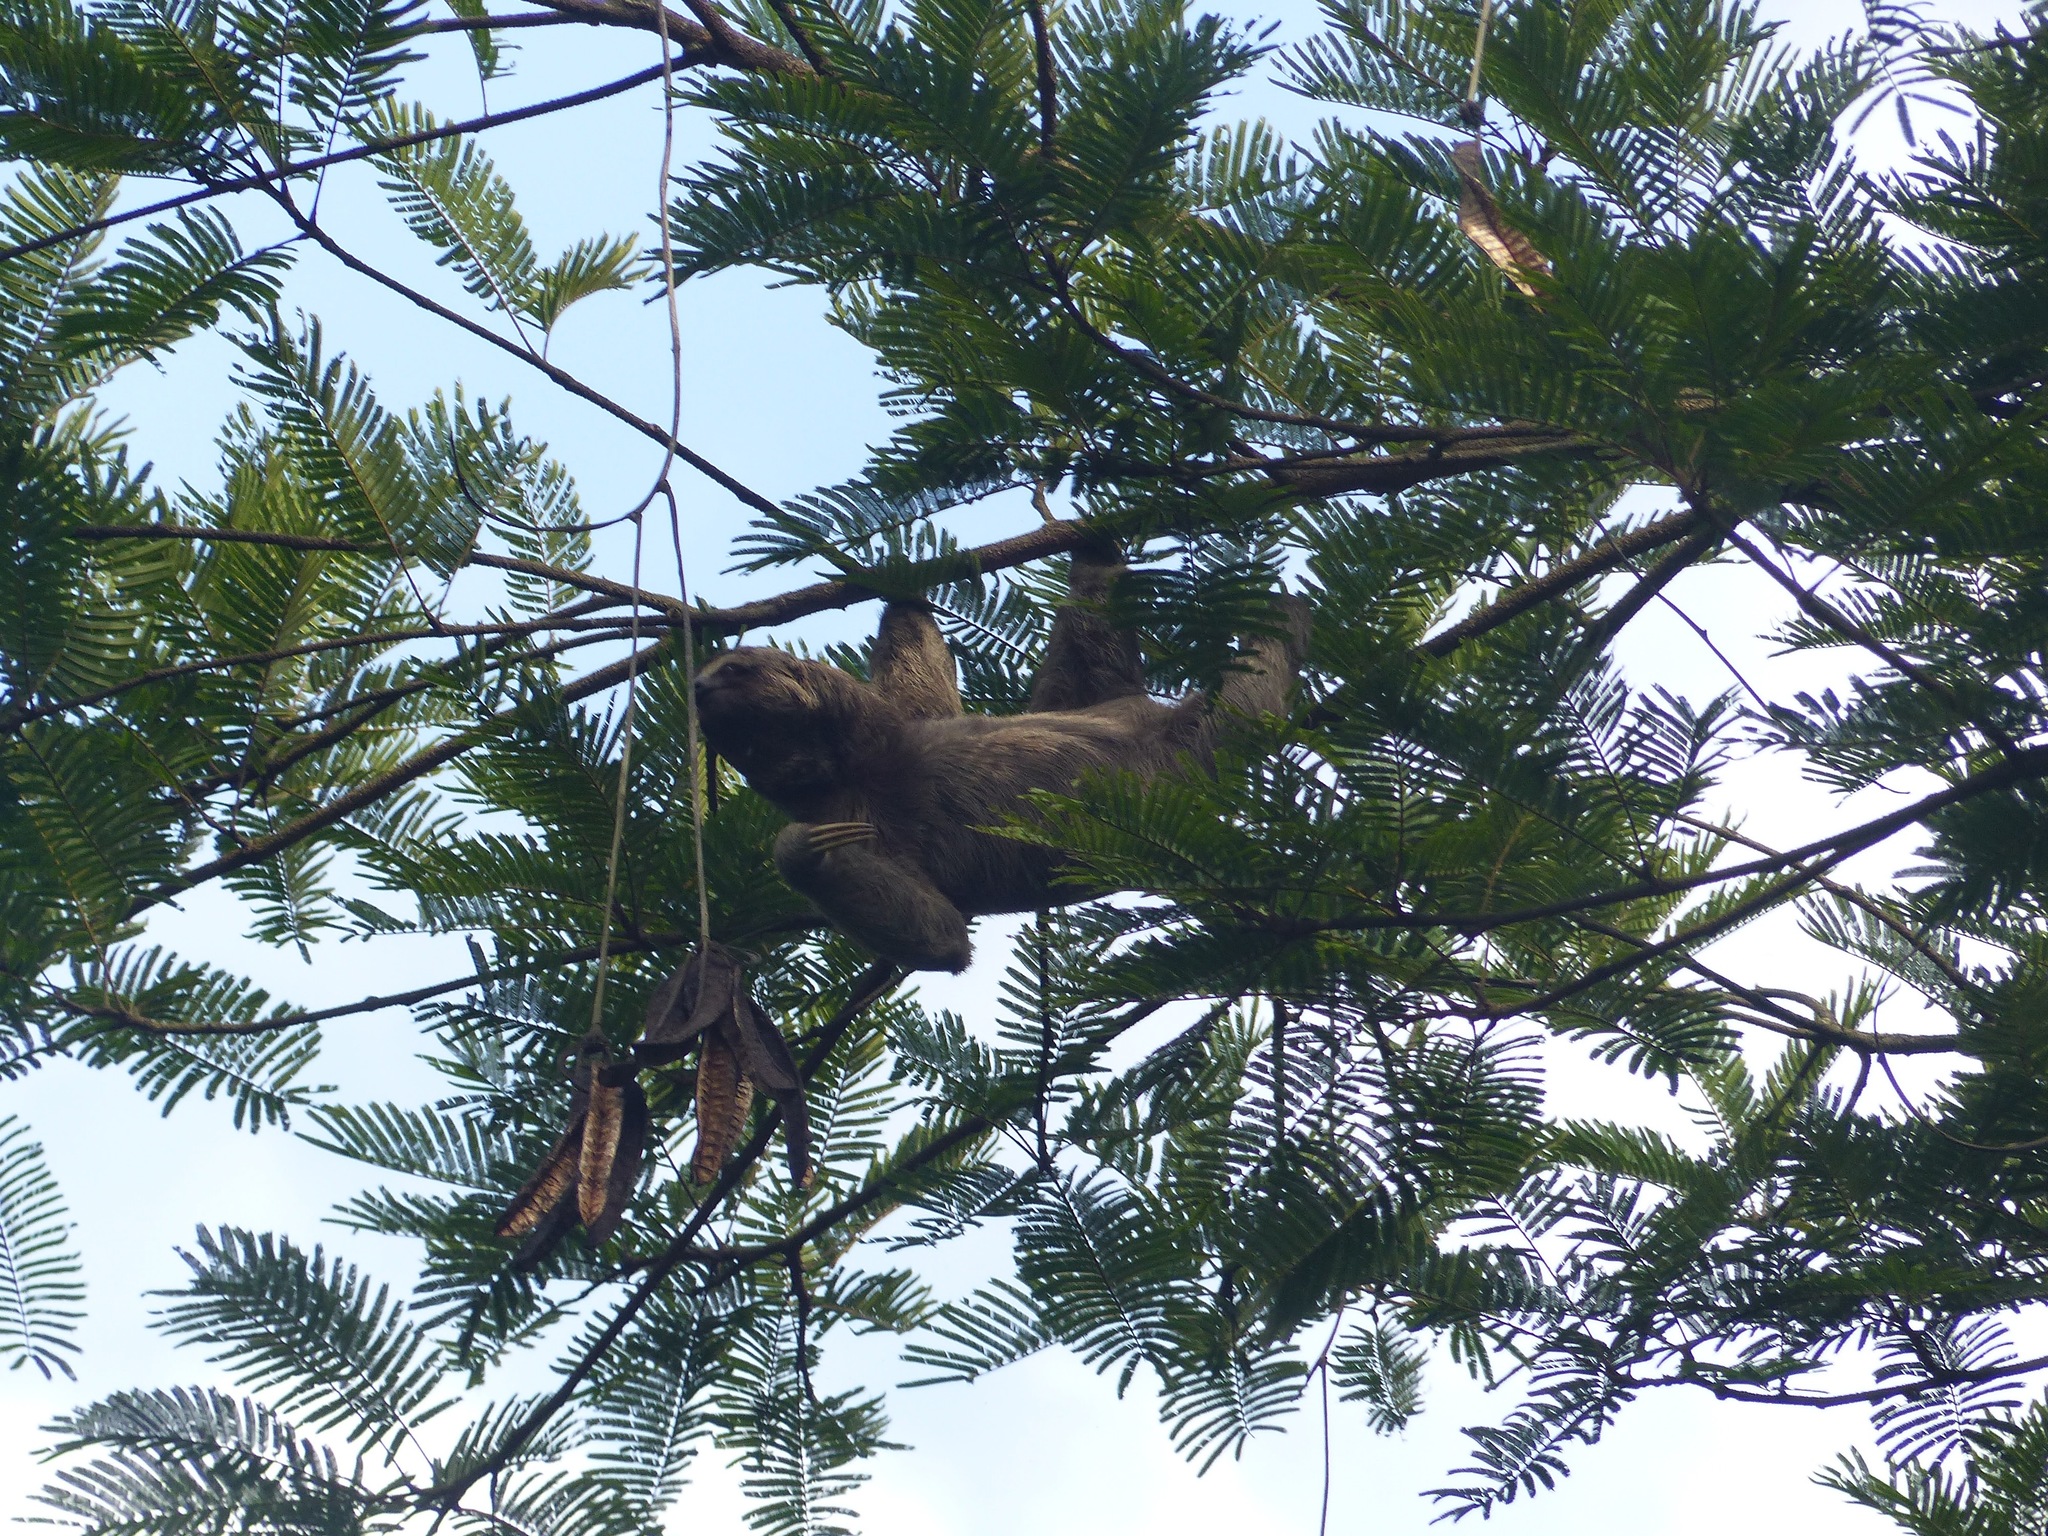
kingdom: Animalia
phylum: Chordata
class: Mammalia
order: Pilosa
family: Bradypodidae
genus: Bradypus
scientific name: Bradypus variegatus
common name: Brown-throated three-toed sloth
